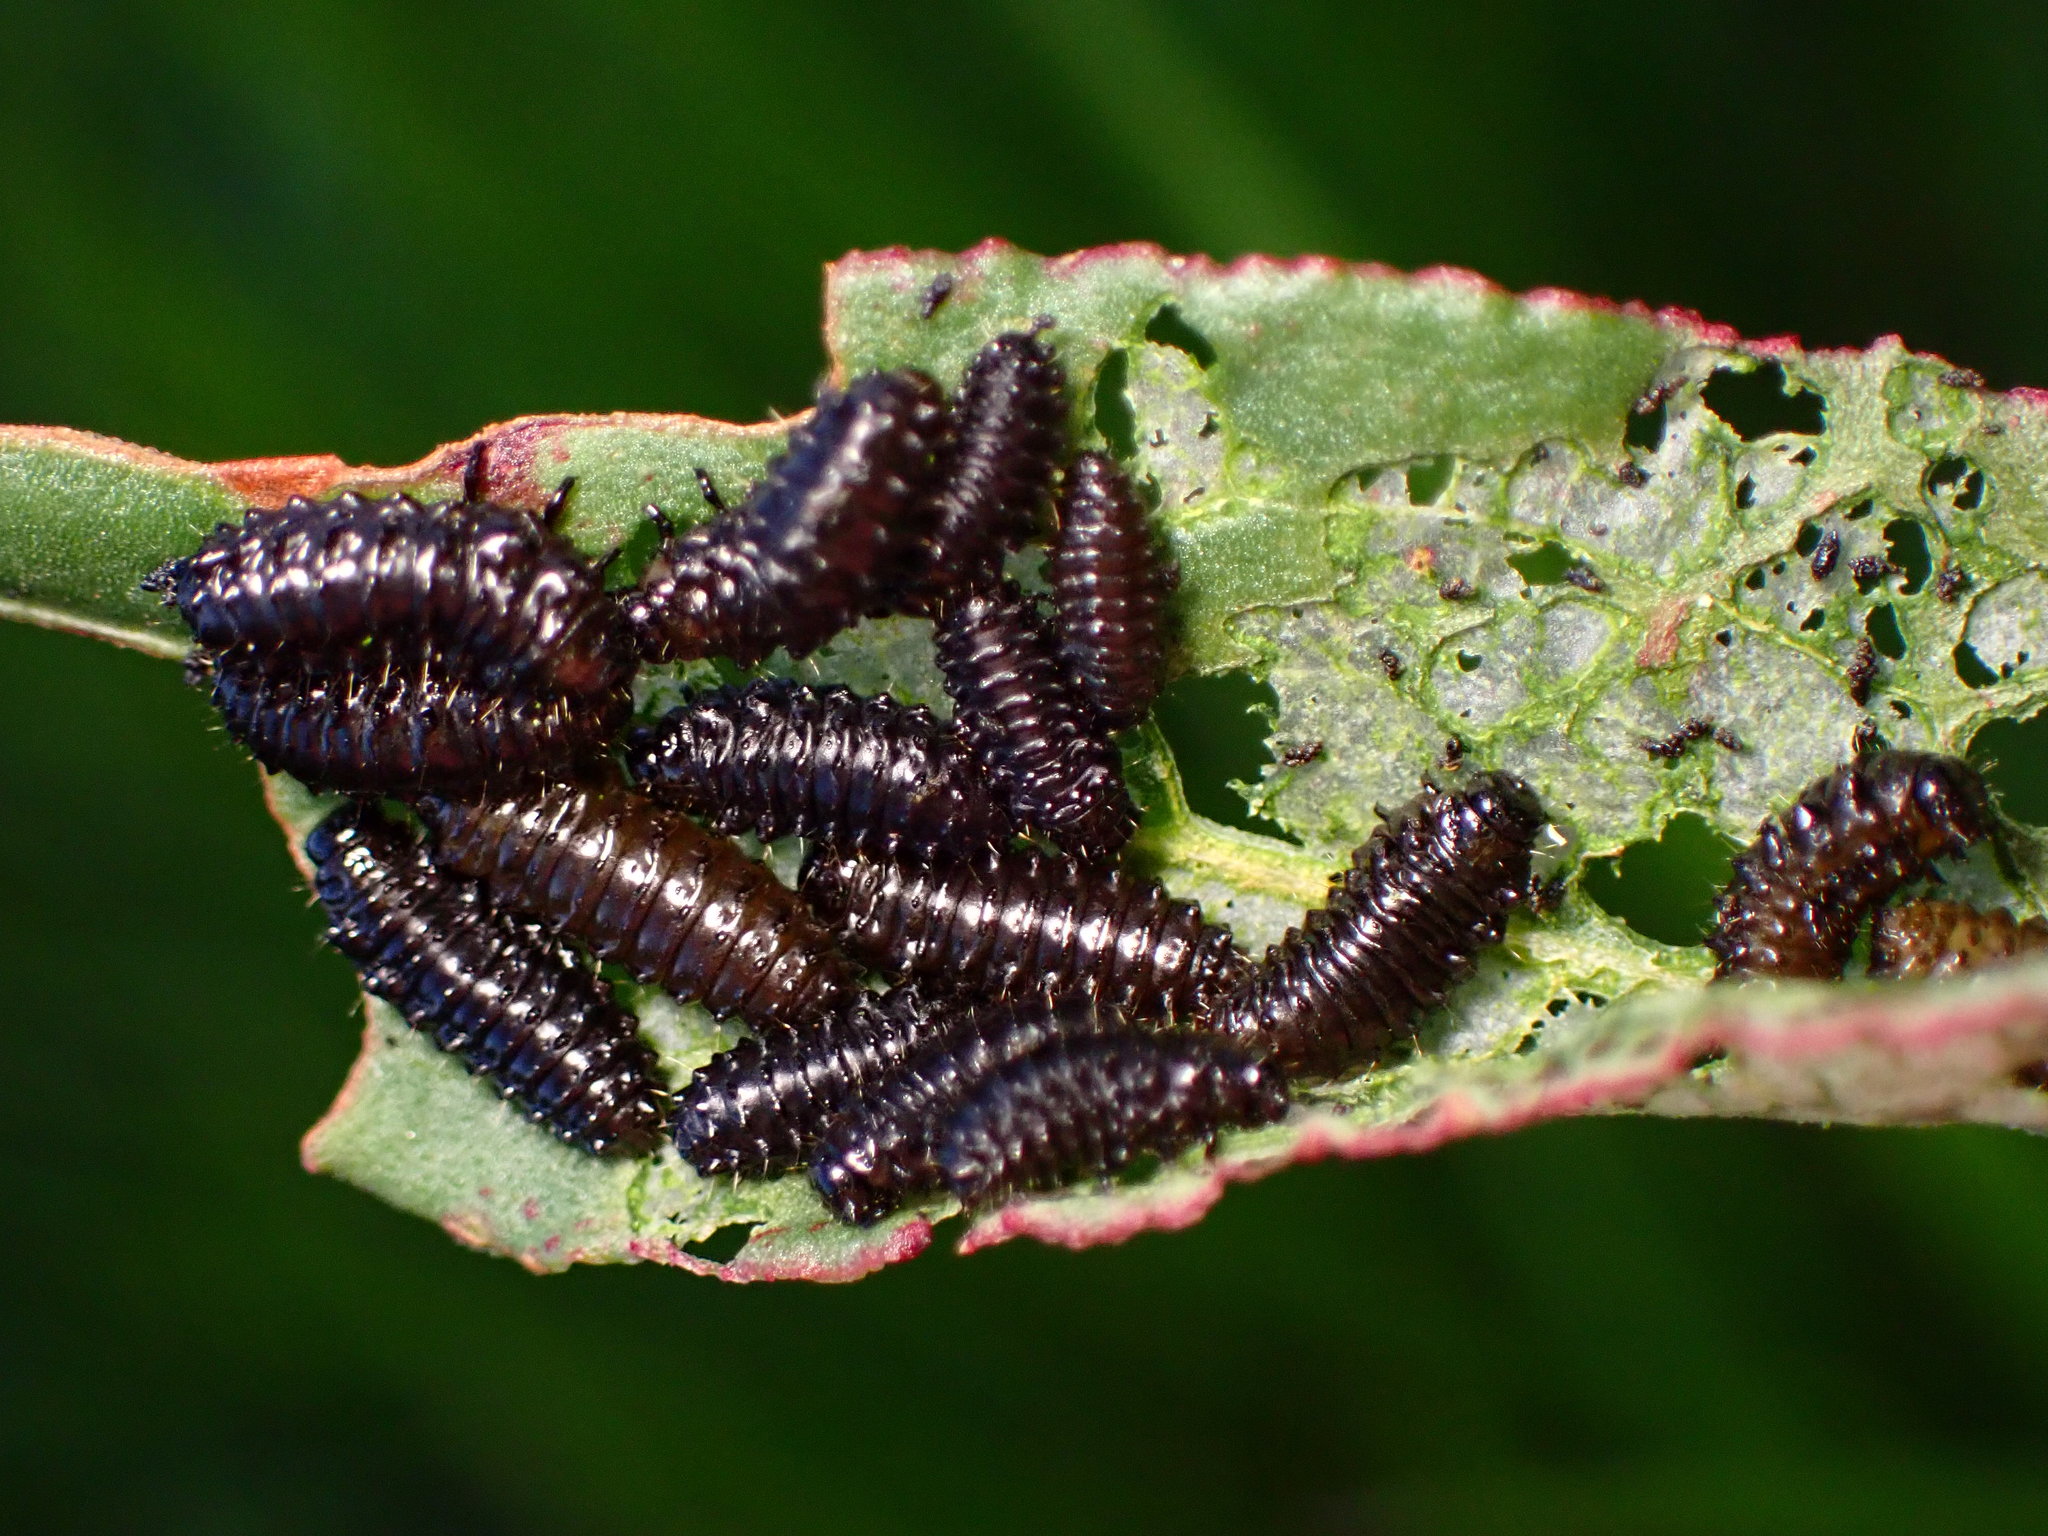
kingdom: Animalia
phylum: Arthropoda
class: Insecta
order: Coleoptera
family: Chrysomelidae
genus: Gastrophysa
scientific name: Gastrophysa cyanea
